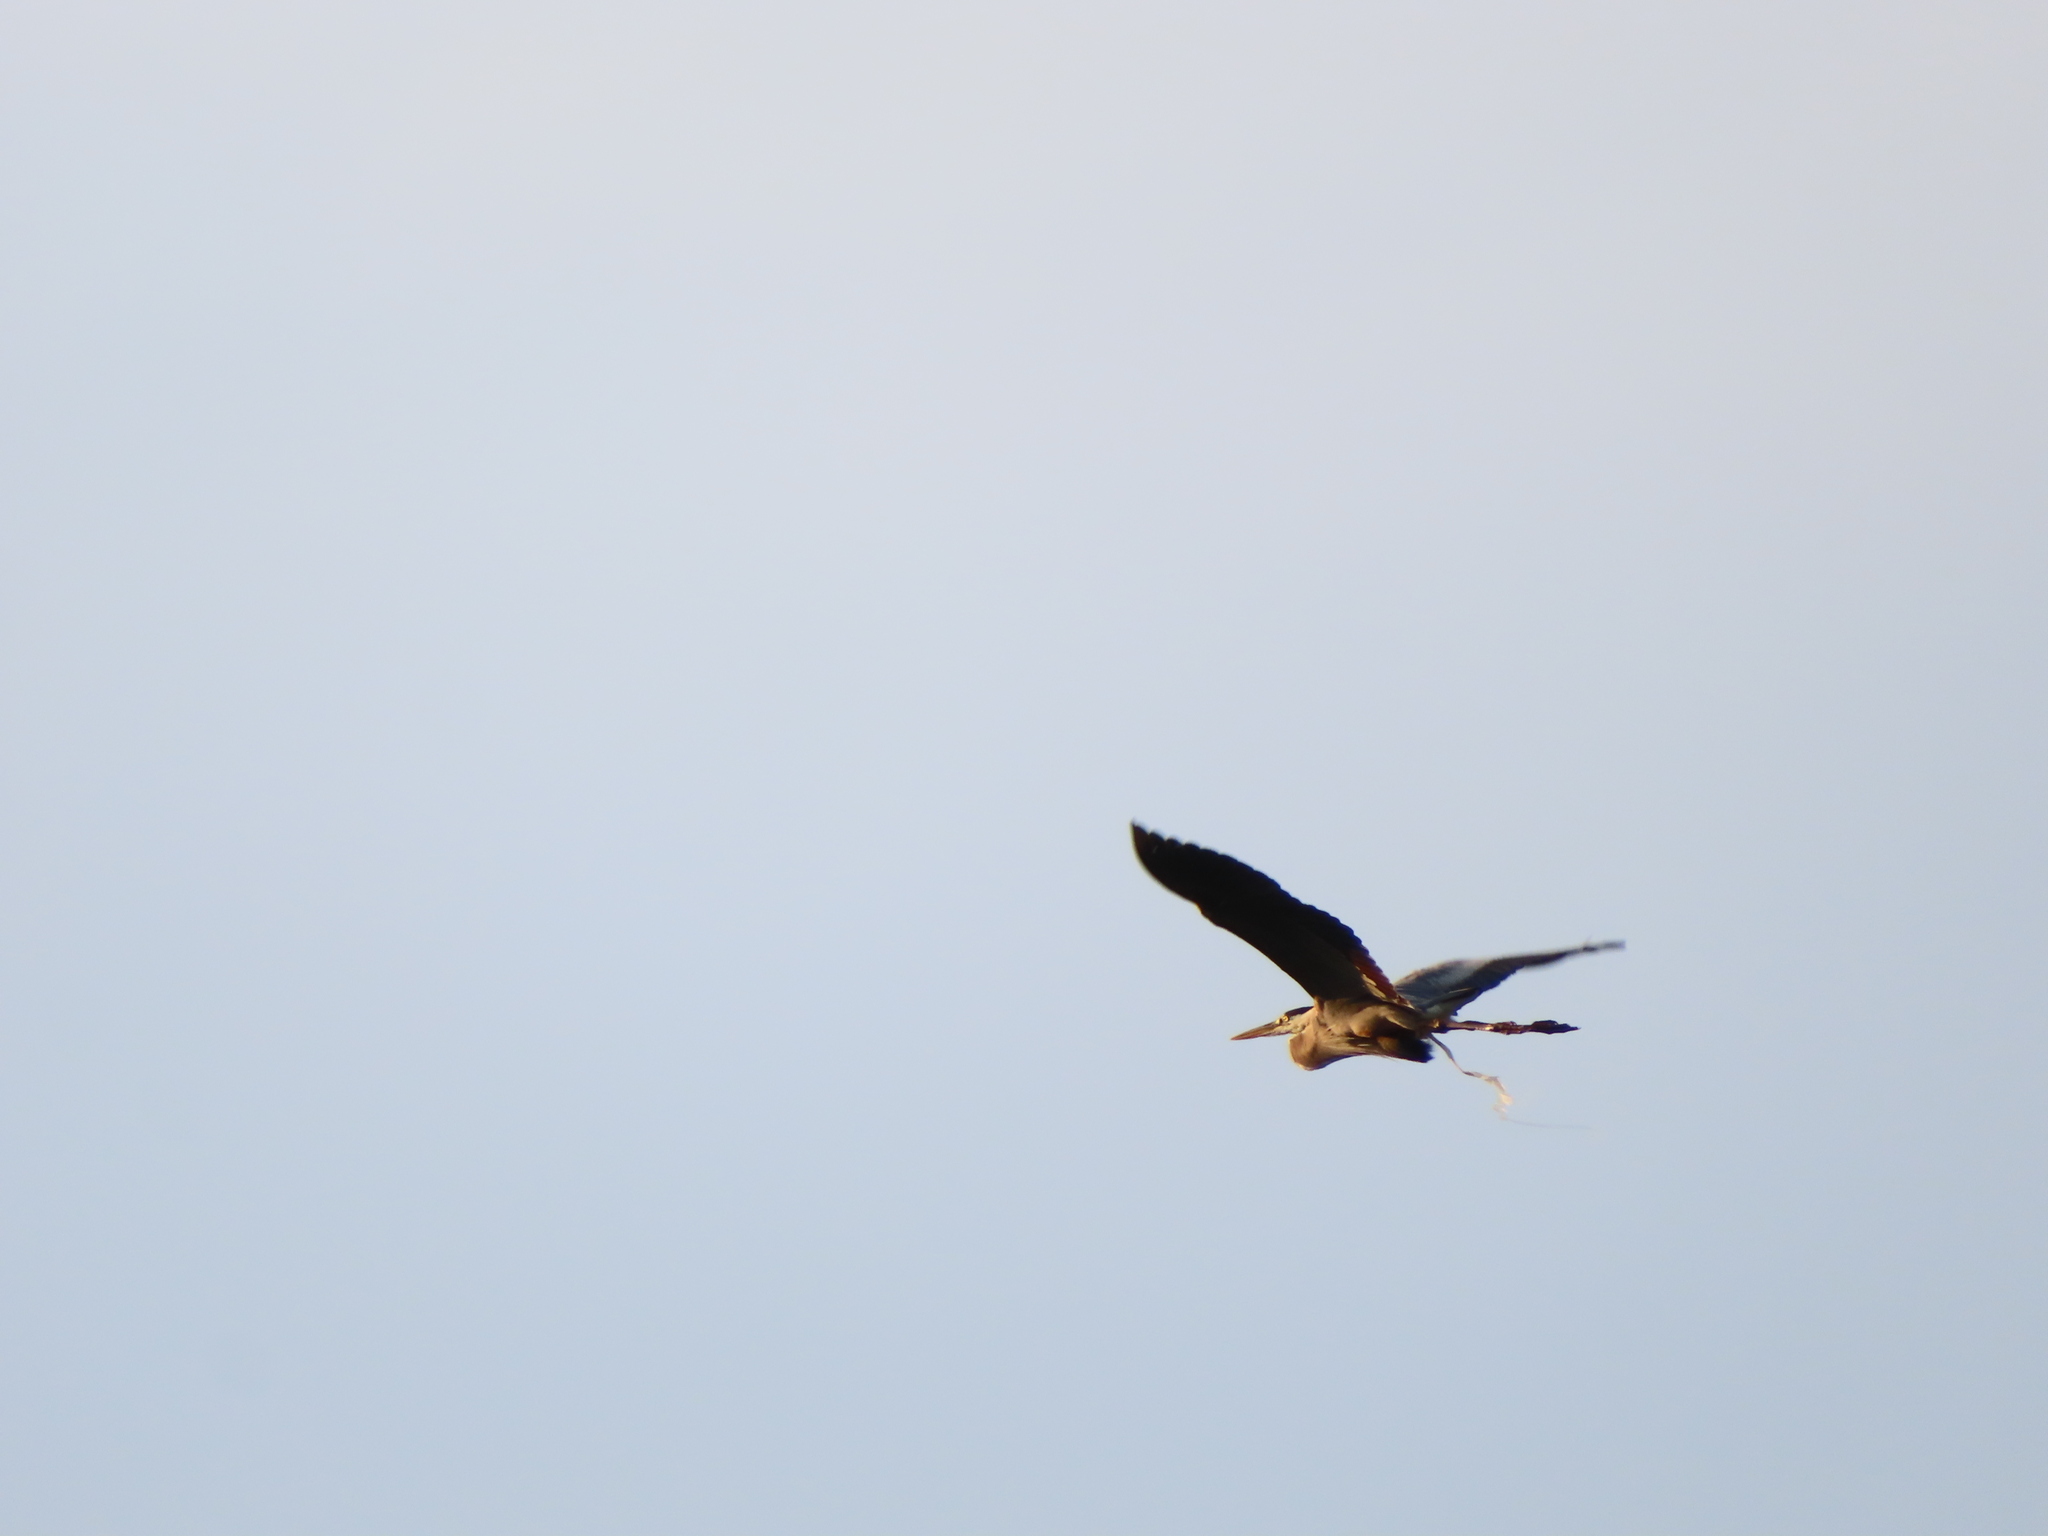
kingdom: Animalia
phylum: Chordata
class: Aves
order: Pelecaniformes
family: Ardeidae
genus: Ardea
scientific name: Ardea herodias
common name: Great blue heron
